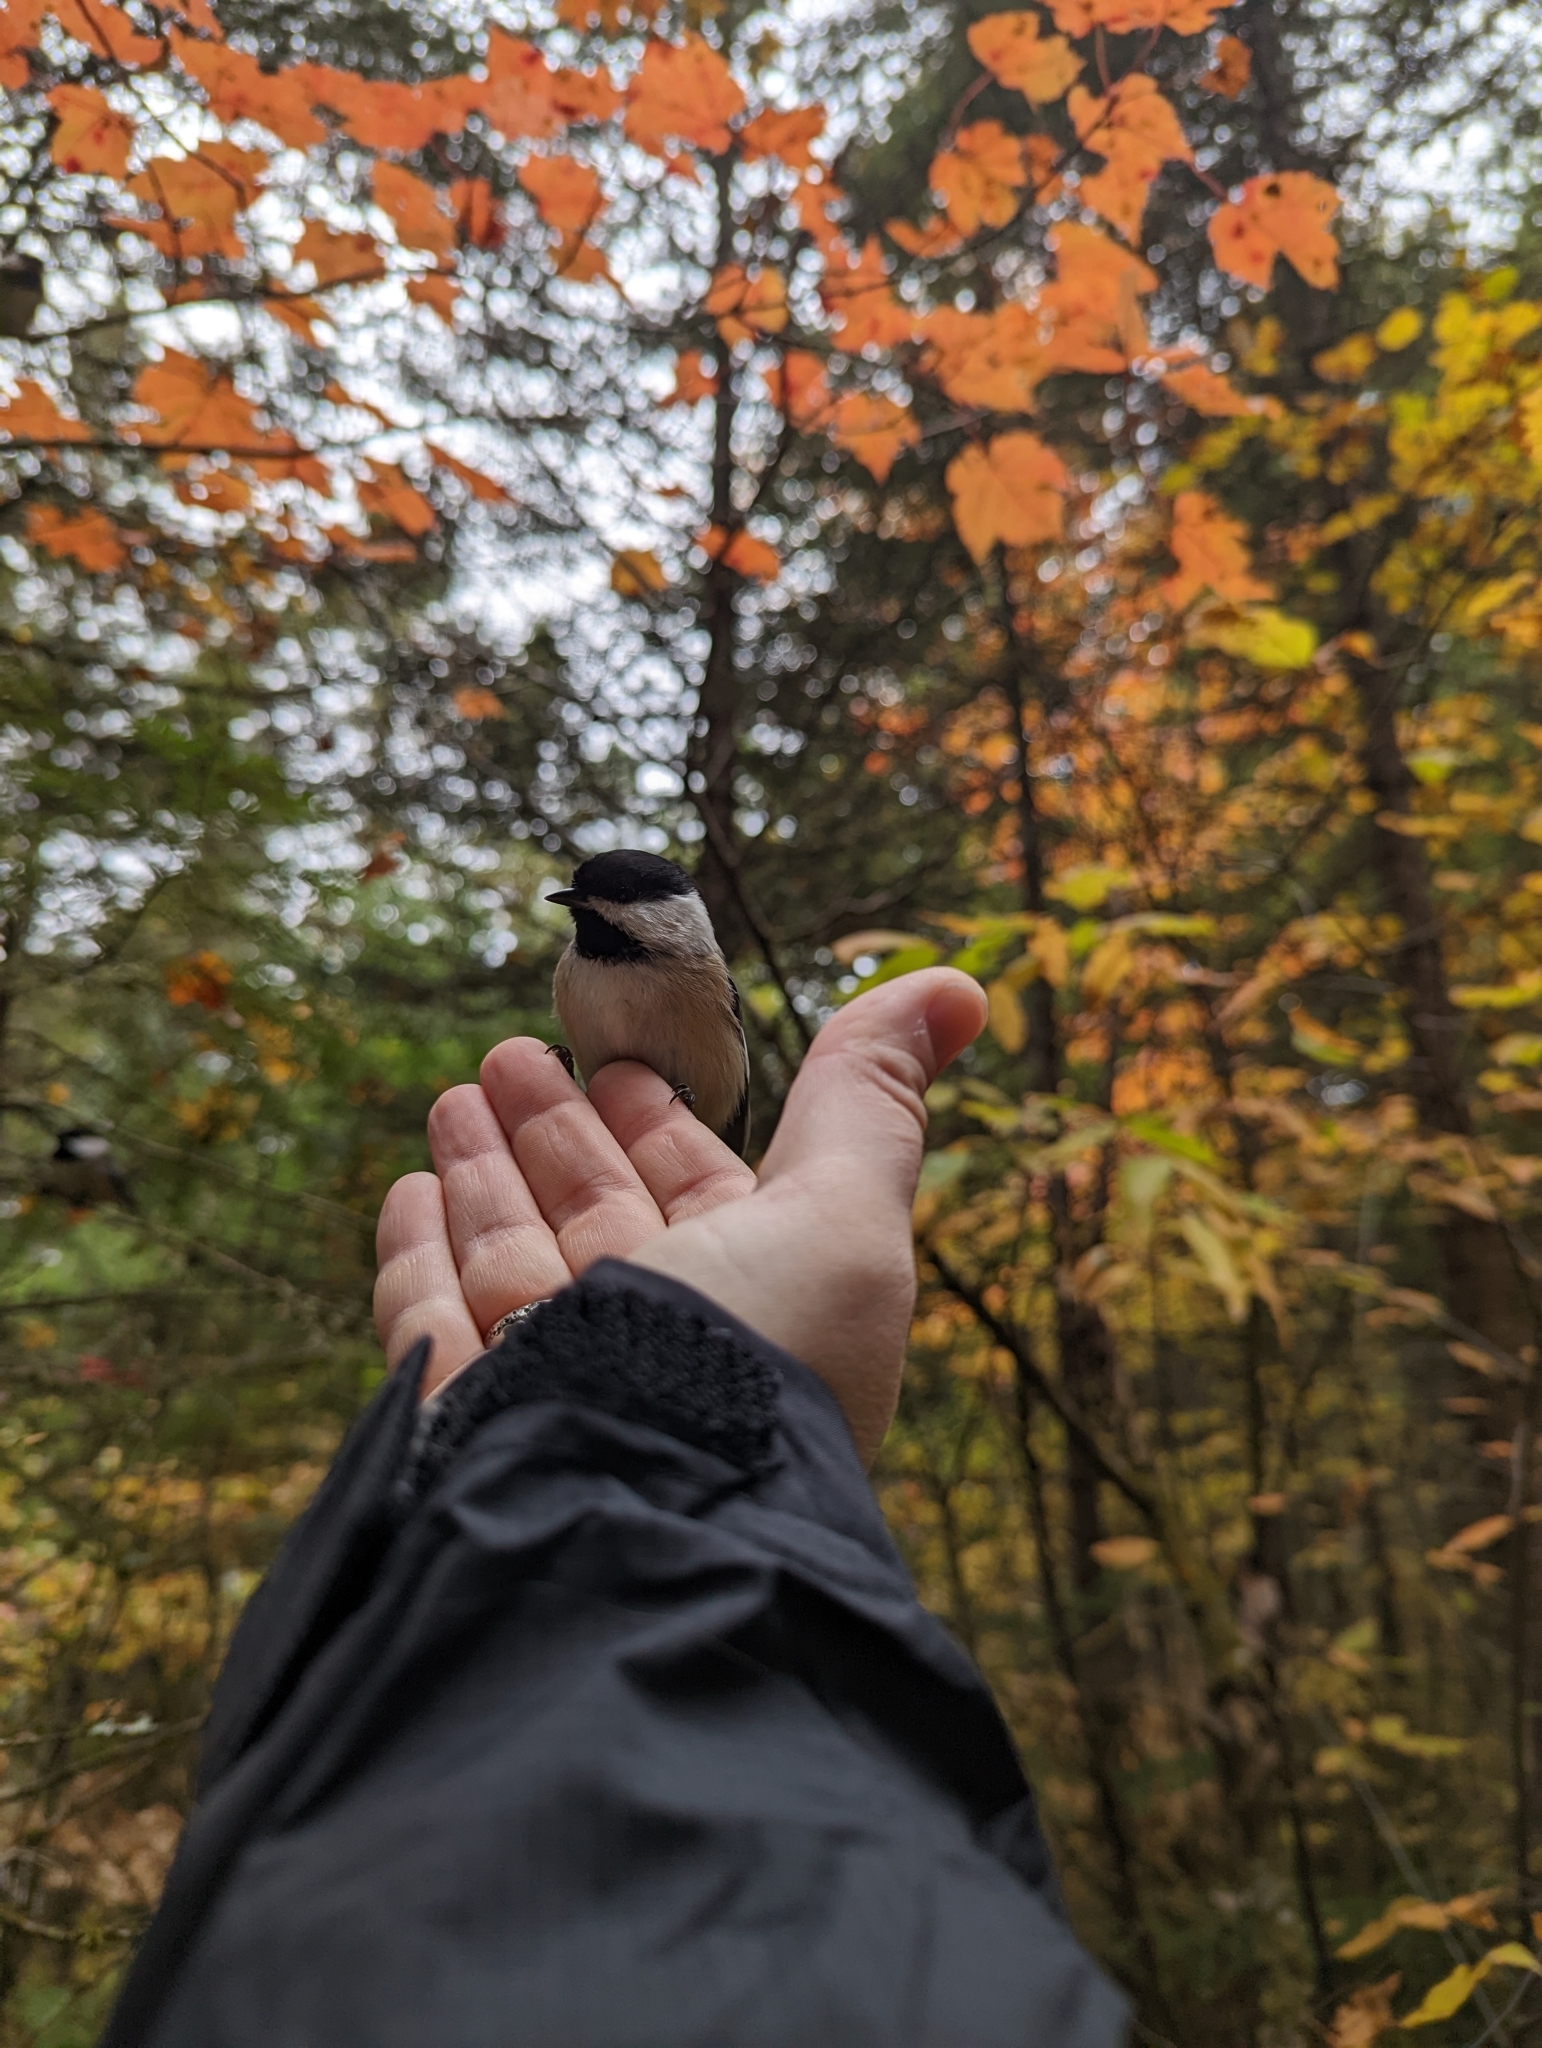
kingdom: Animalia
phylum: Chordata
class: Aves
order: Passeriformes
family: Paridae
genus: Poecile
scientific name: Poecile atricapillus
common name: Black-capped chickadee
